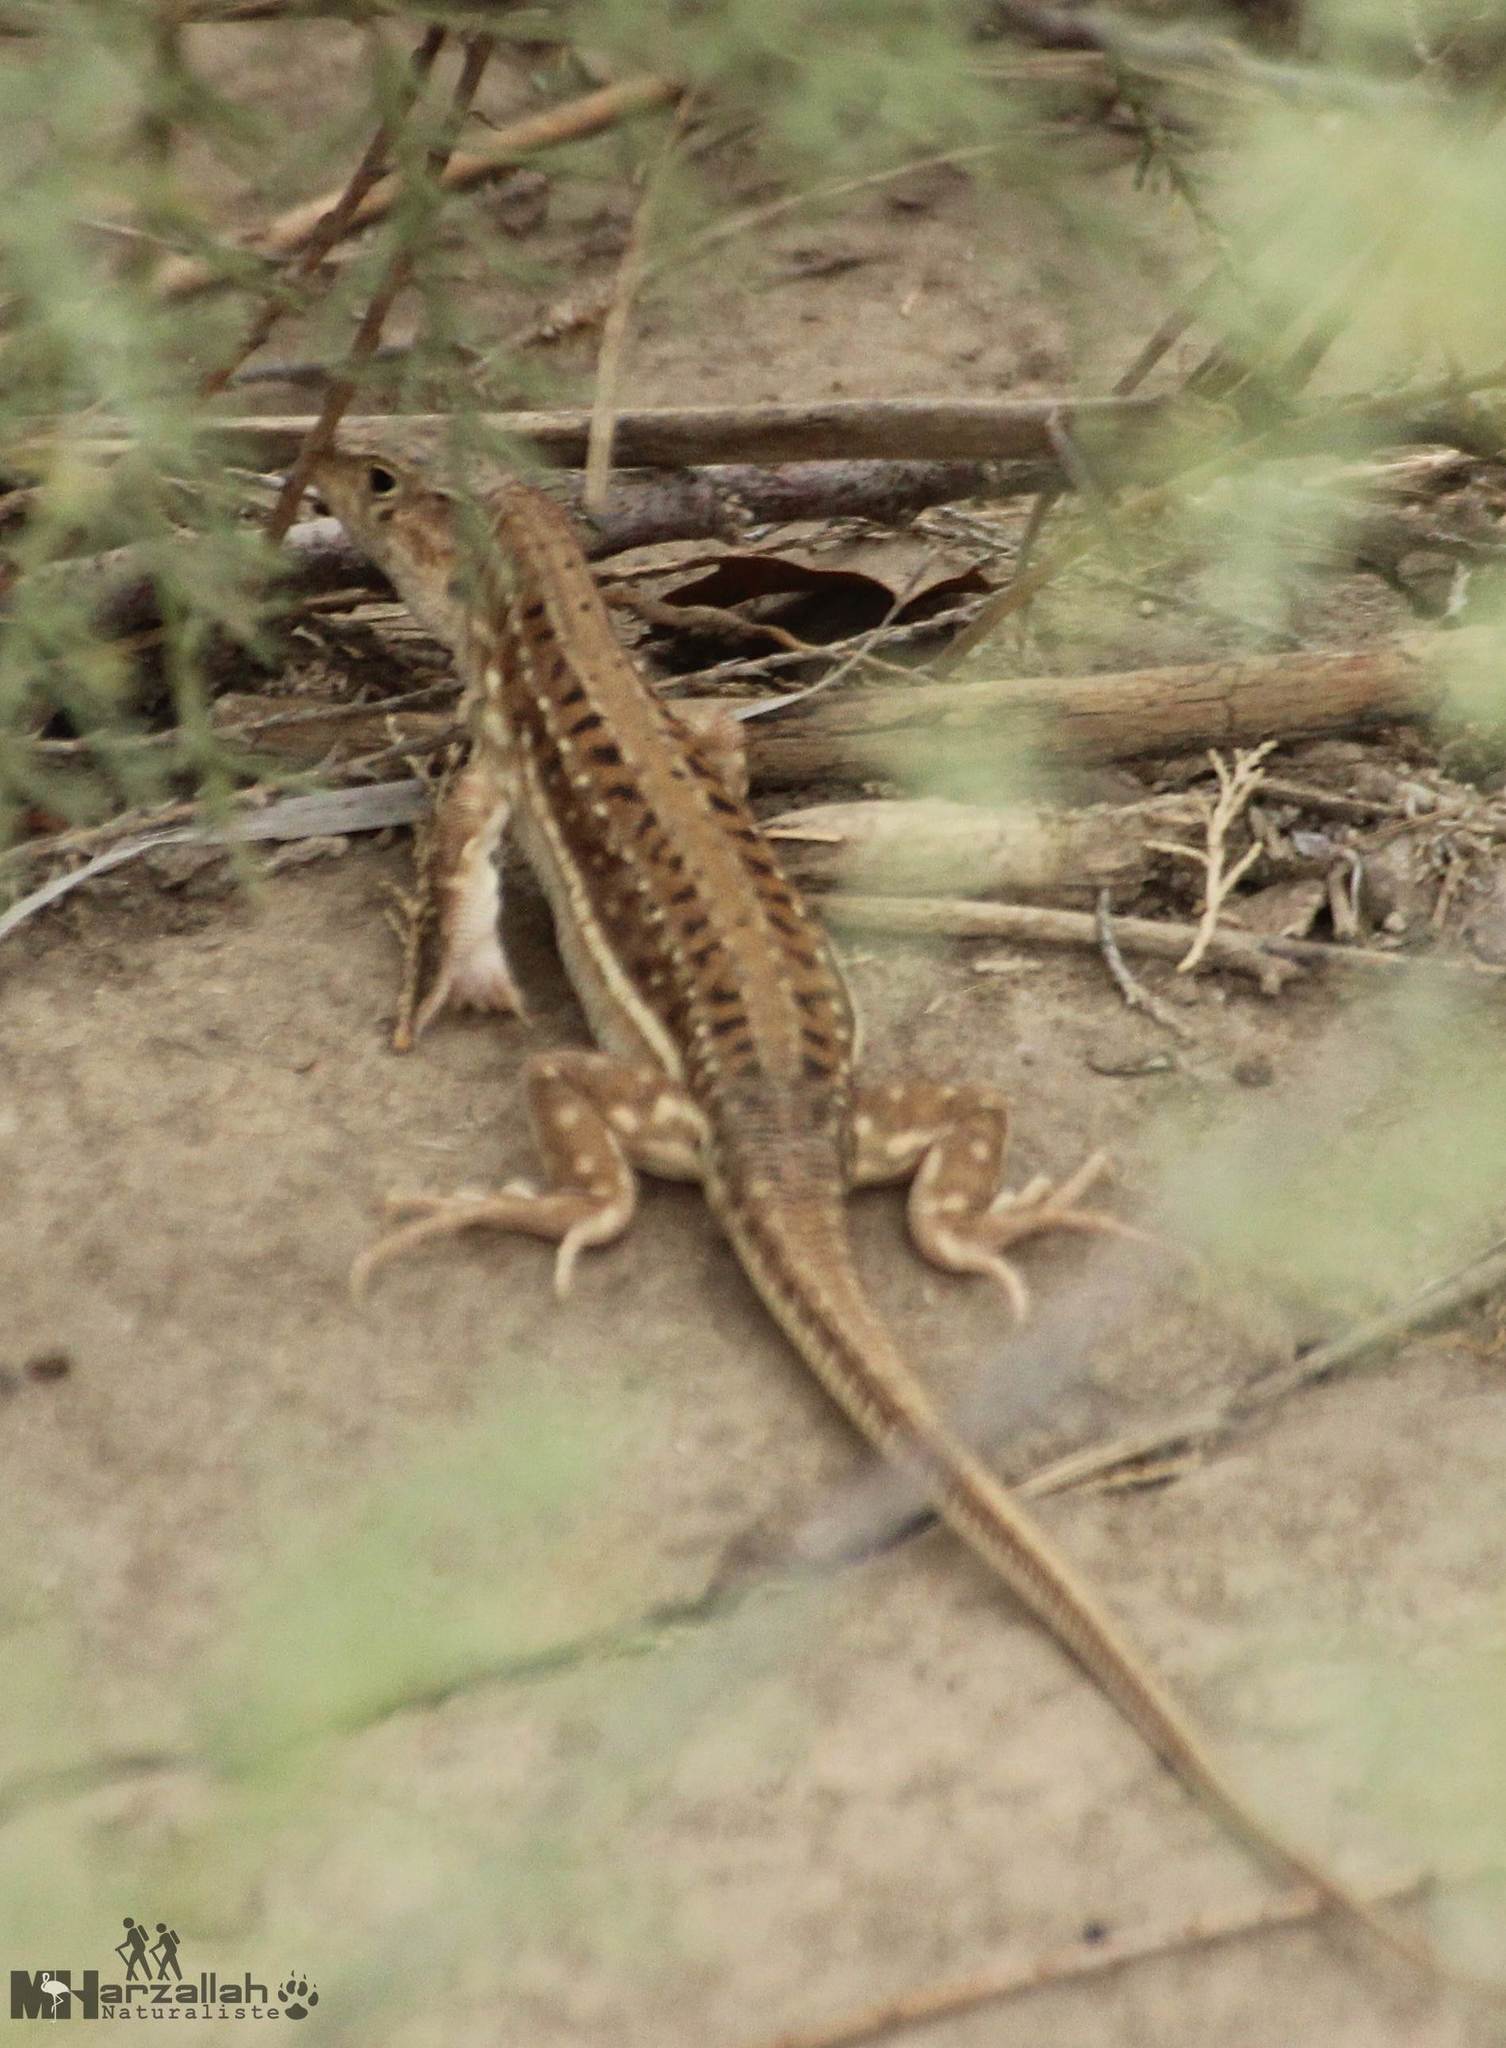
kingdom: Animalia
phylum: Chordata
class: Squamata
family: Lacertidae
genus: Acanthodactylus
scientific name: Acanthodactylus erythrurus
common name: Spiny-footed lizard
